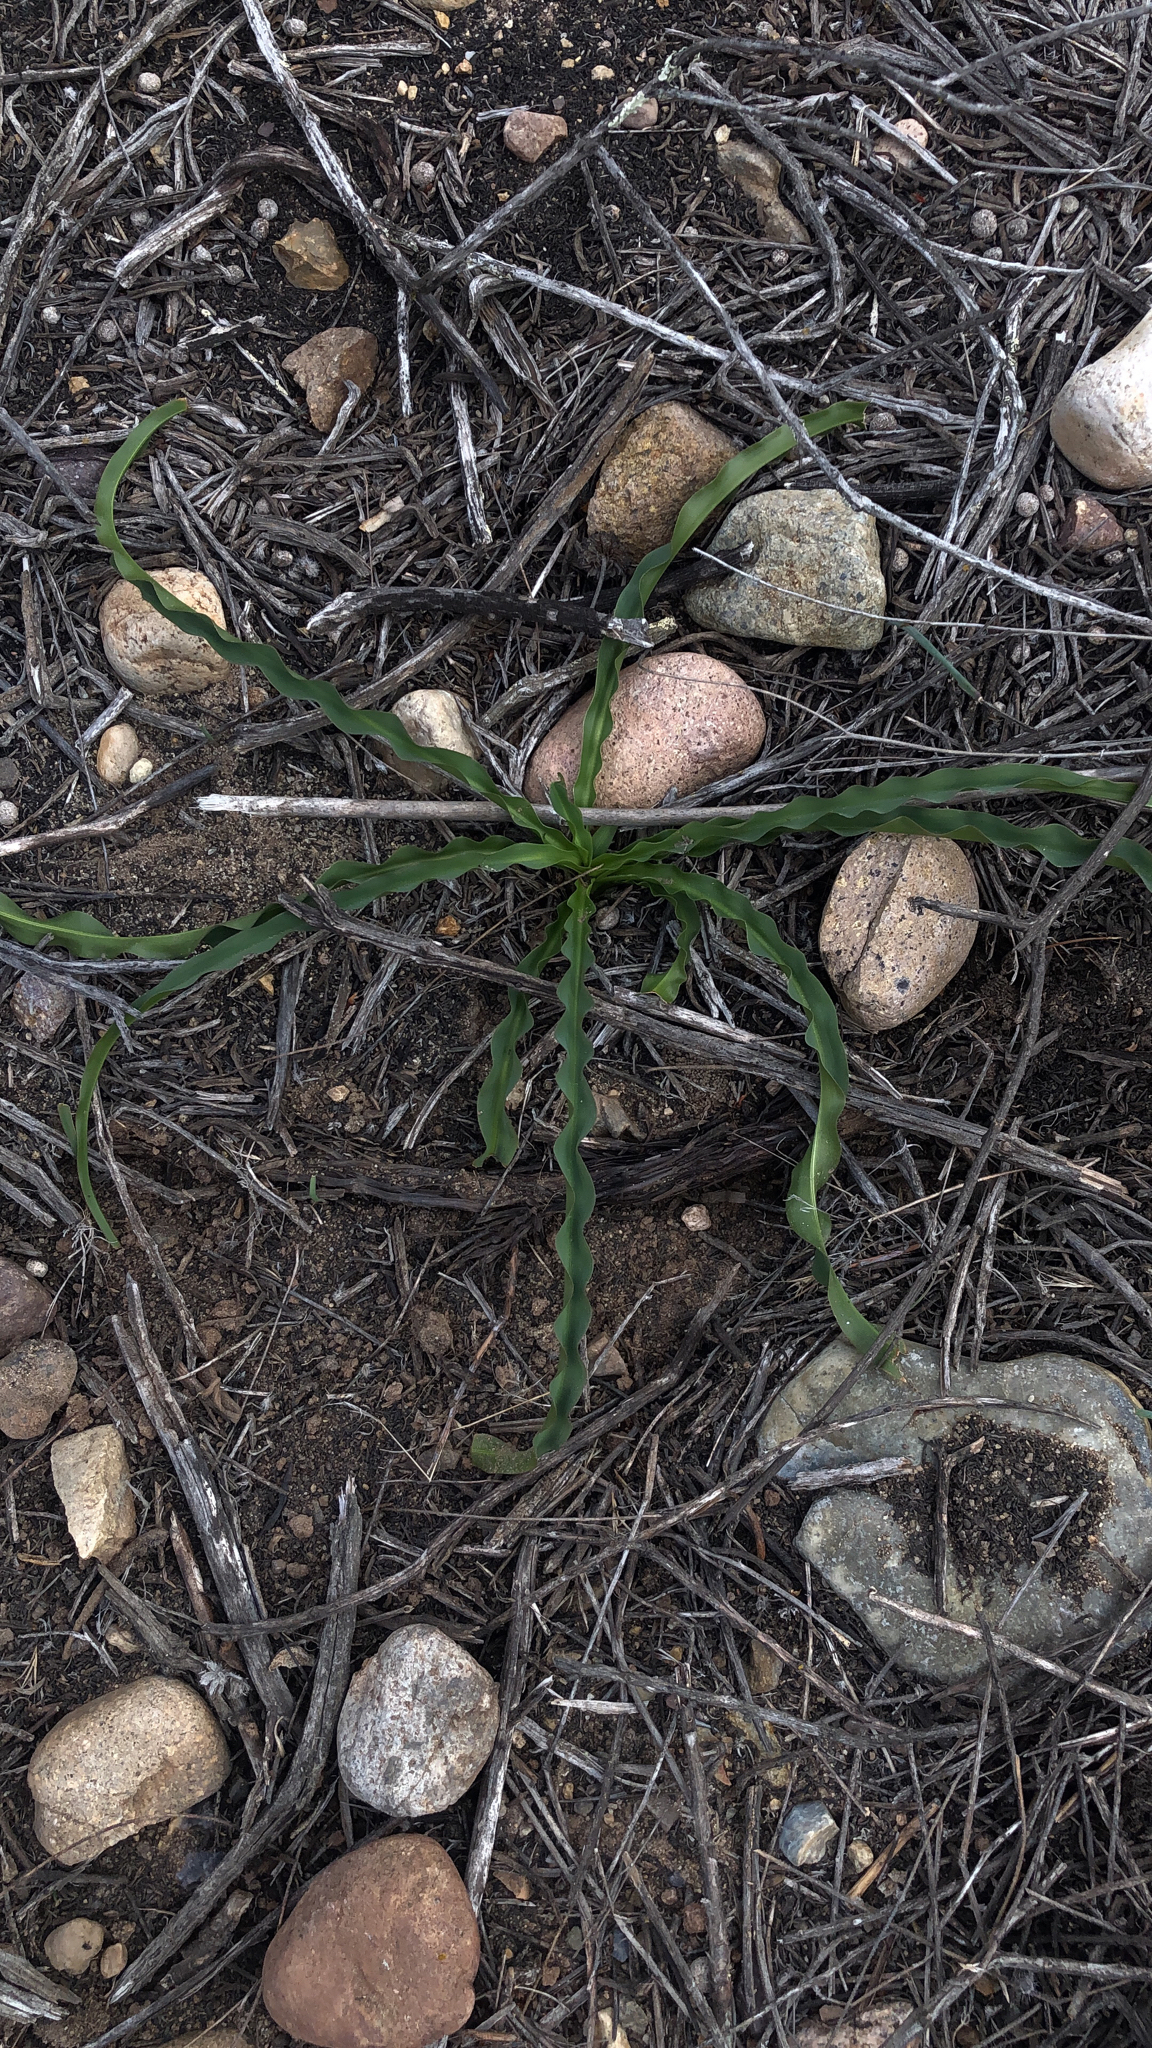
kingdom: Plantae
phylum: Tracheophyta
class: Liliopsida
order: Asparagales
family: Asparagaceae
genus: Hooveria
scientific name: Hooveria parviflora
